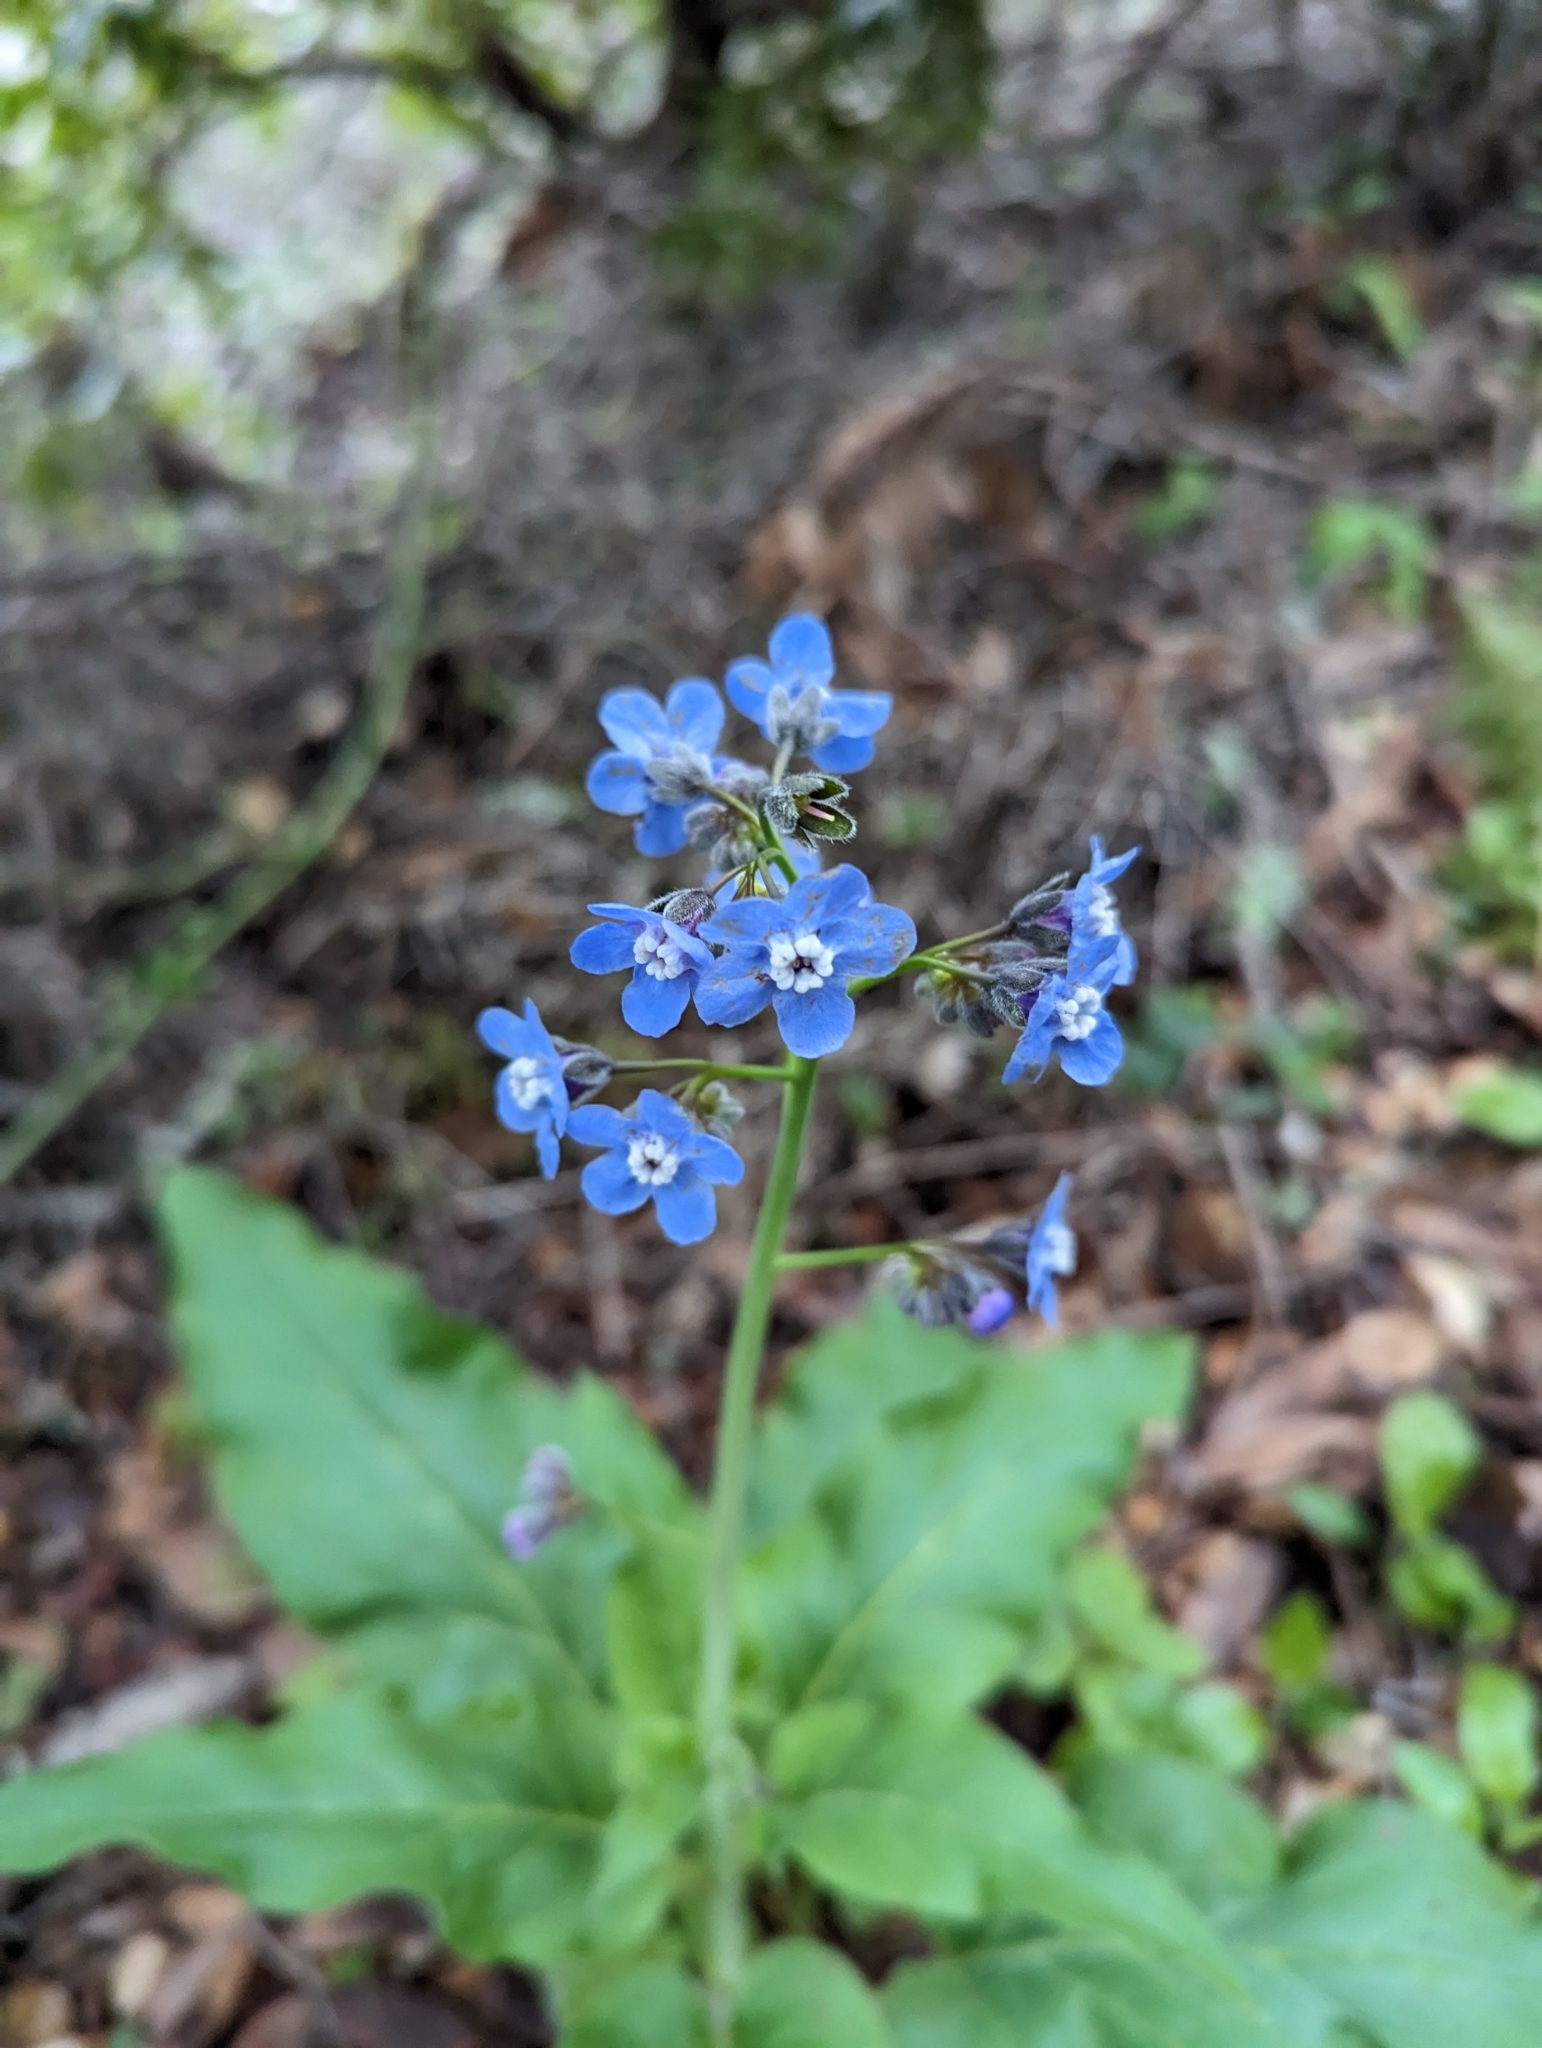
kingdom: Plantae
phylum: Tracheophyta
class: Magnoliopsida
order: Boraginales
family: Boraginaceae
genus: Adelinia
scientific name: Adelinia grande
